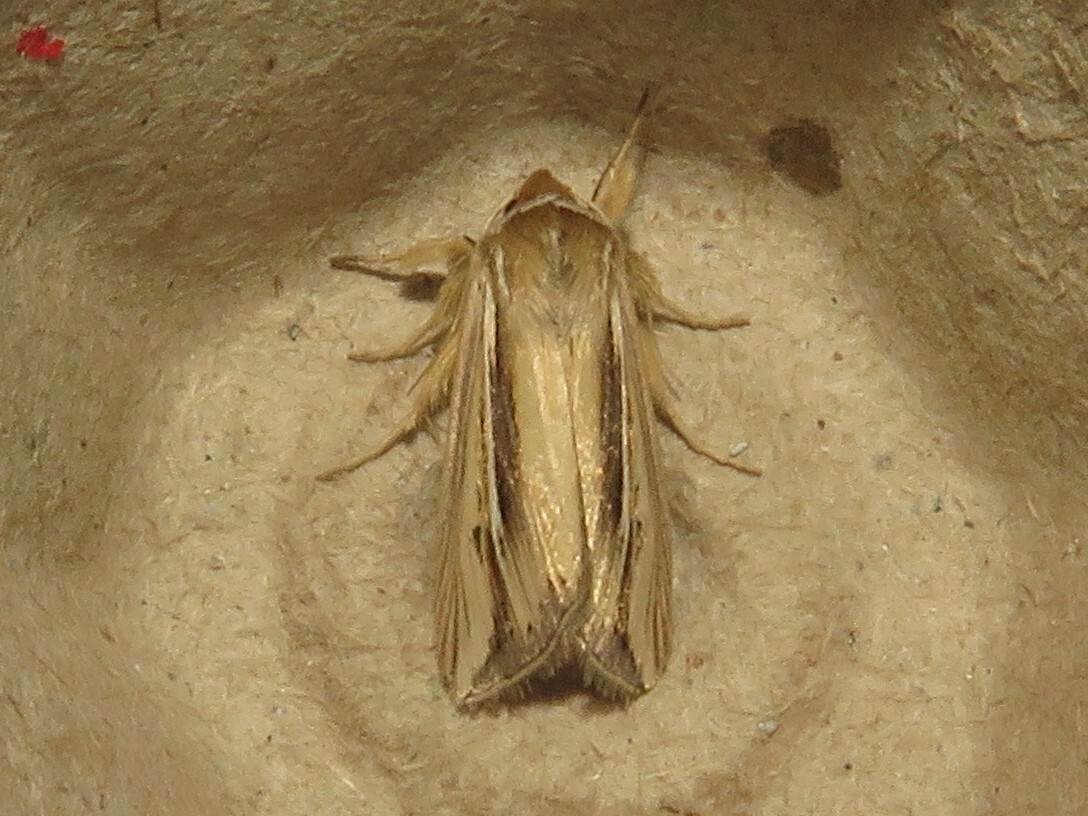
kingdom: Animalia
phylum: Arthropoda
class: Insecta
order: Lepidoptera
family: Noctuidae
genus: Dargida
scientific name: Dargida diffusa
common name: Wheat head armyworm
